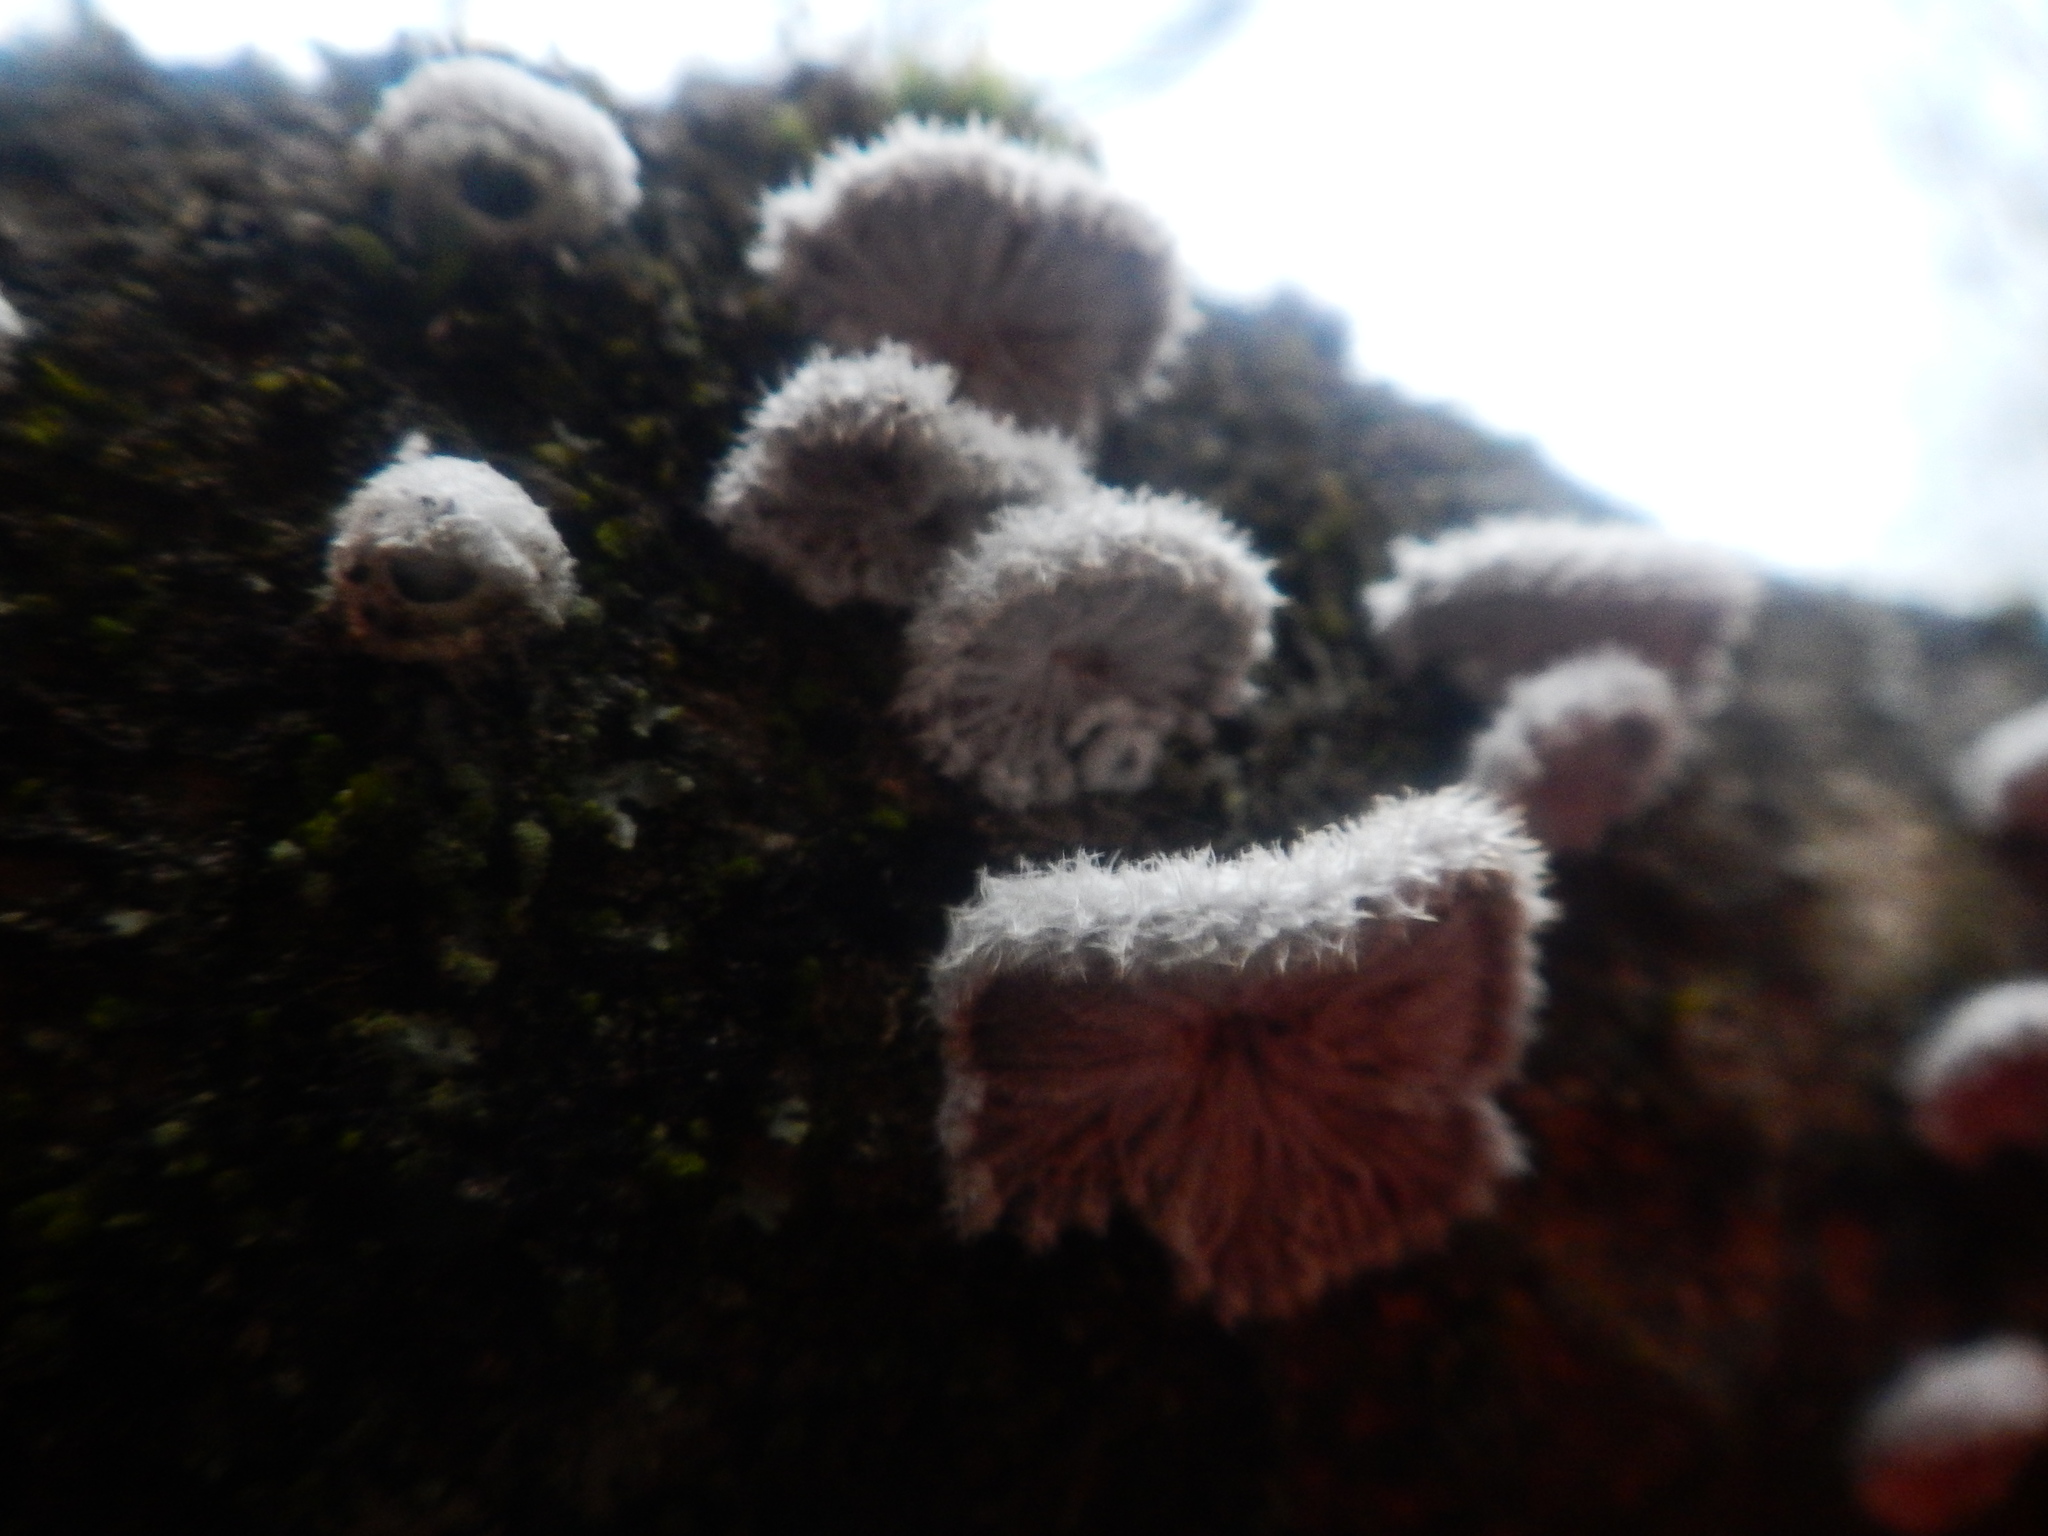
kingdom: Fungi
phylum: Basidiomycota
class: Agaricomycetes
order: Agaricales
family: Schizophyllaceae
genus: Schizophyllum
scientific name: Schizophyllum commune
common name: Common porecrust
